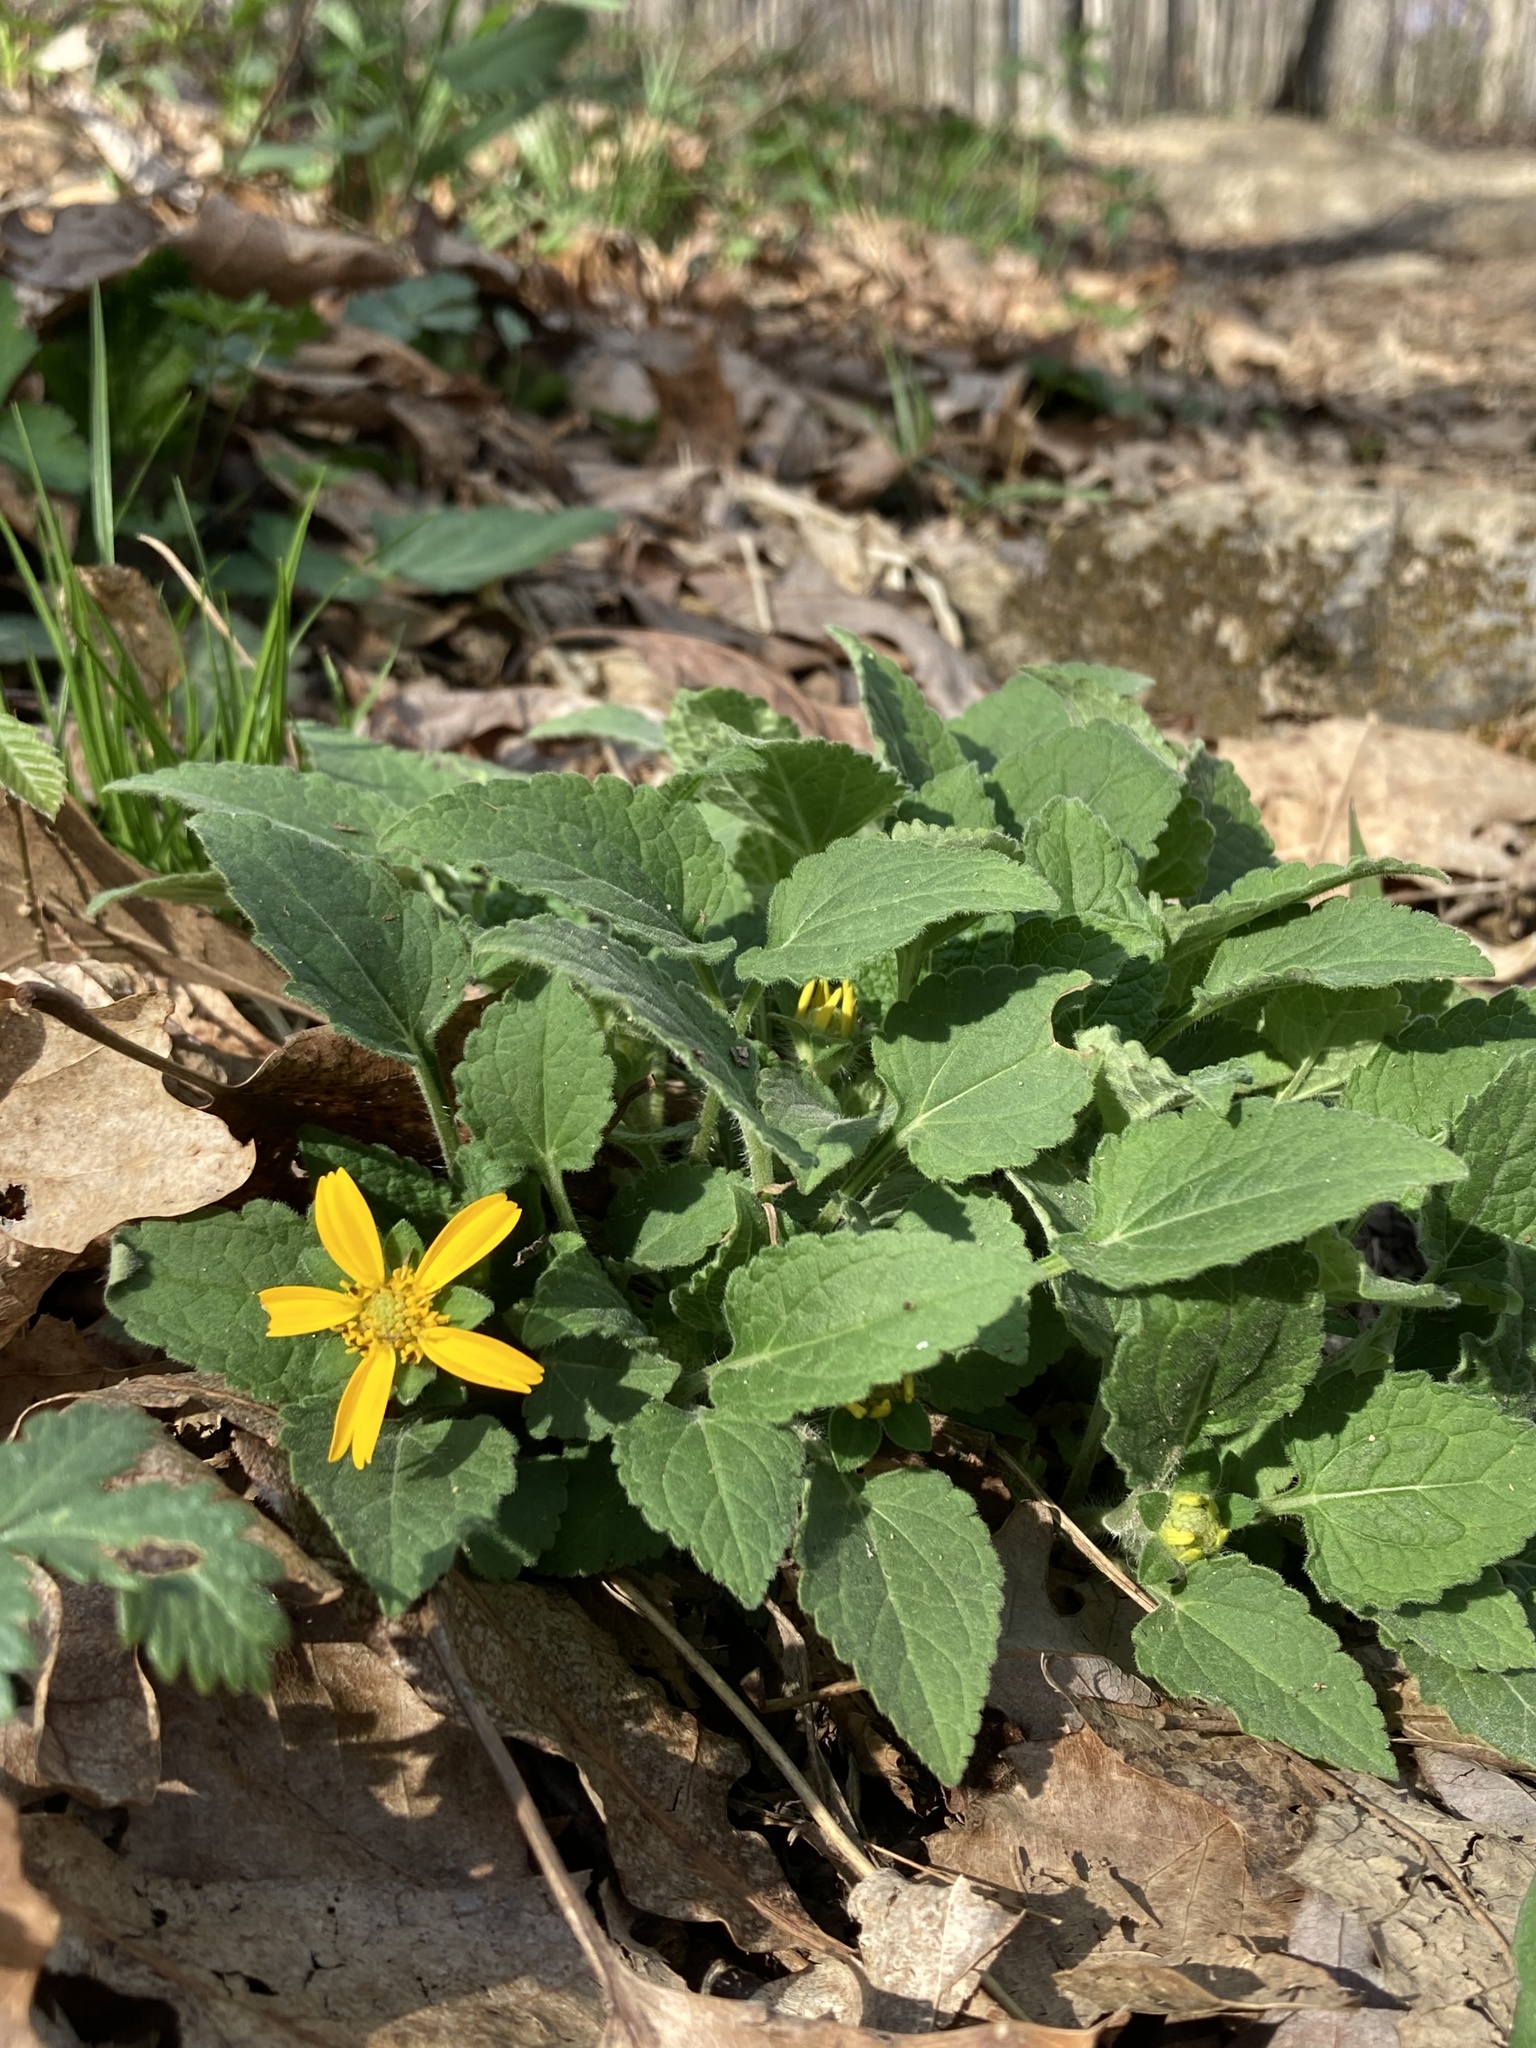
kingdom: Plantae
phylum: Tracheophyta
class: Magnoliopsida
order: Asterales
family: Asteraceae
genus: Chrysogonum
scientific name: Chrysogonum virginianum
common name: Golden-knee
